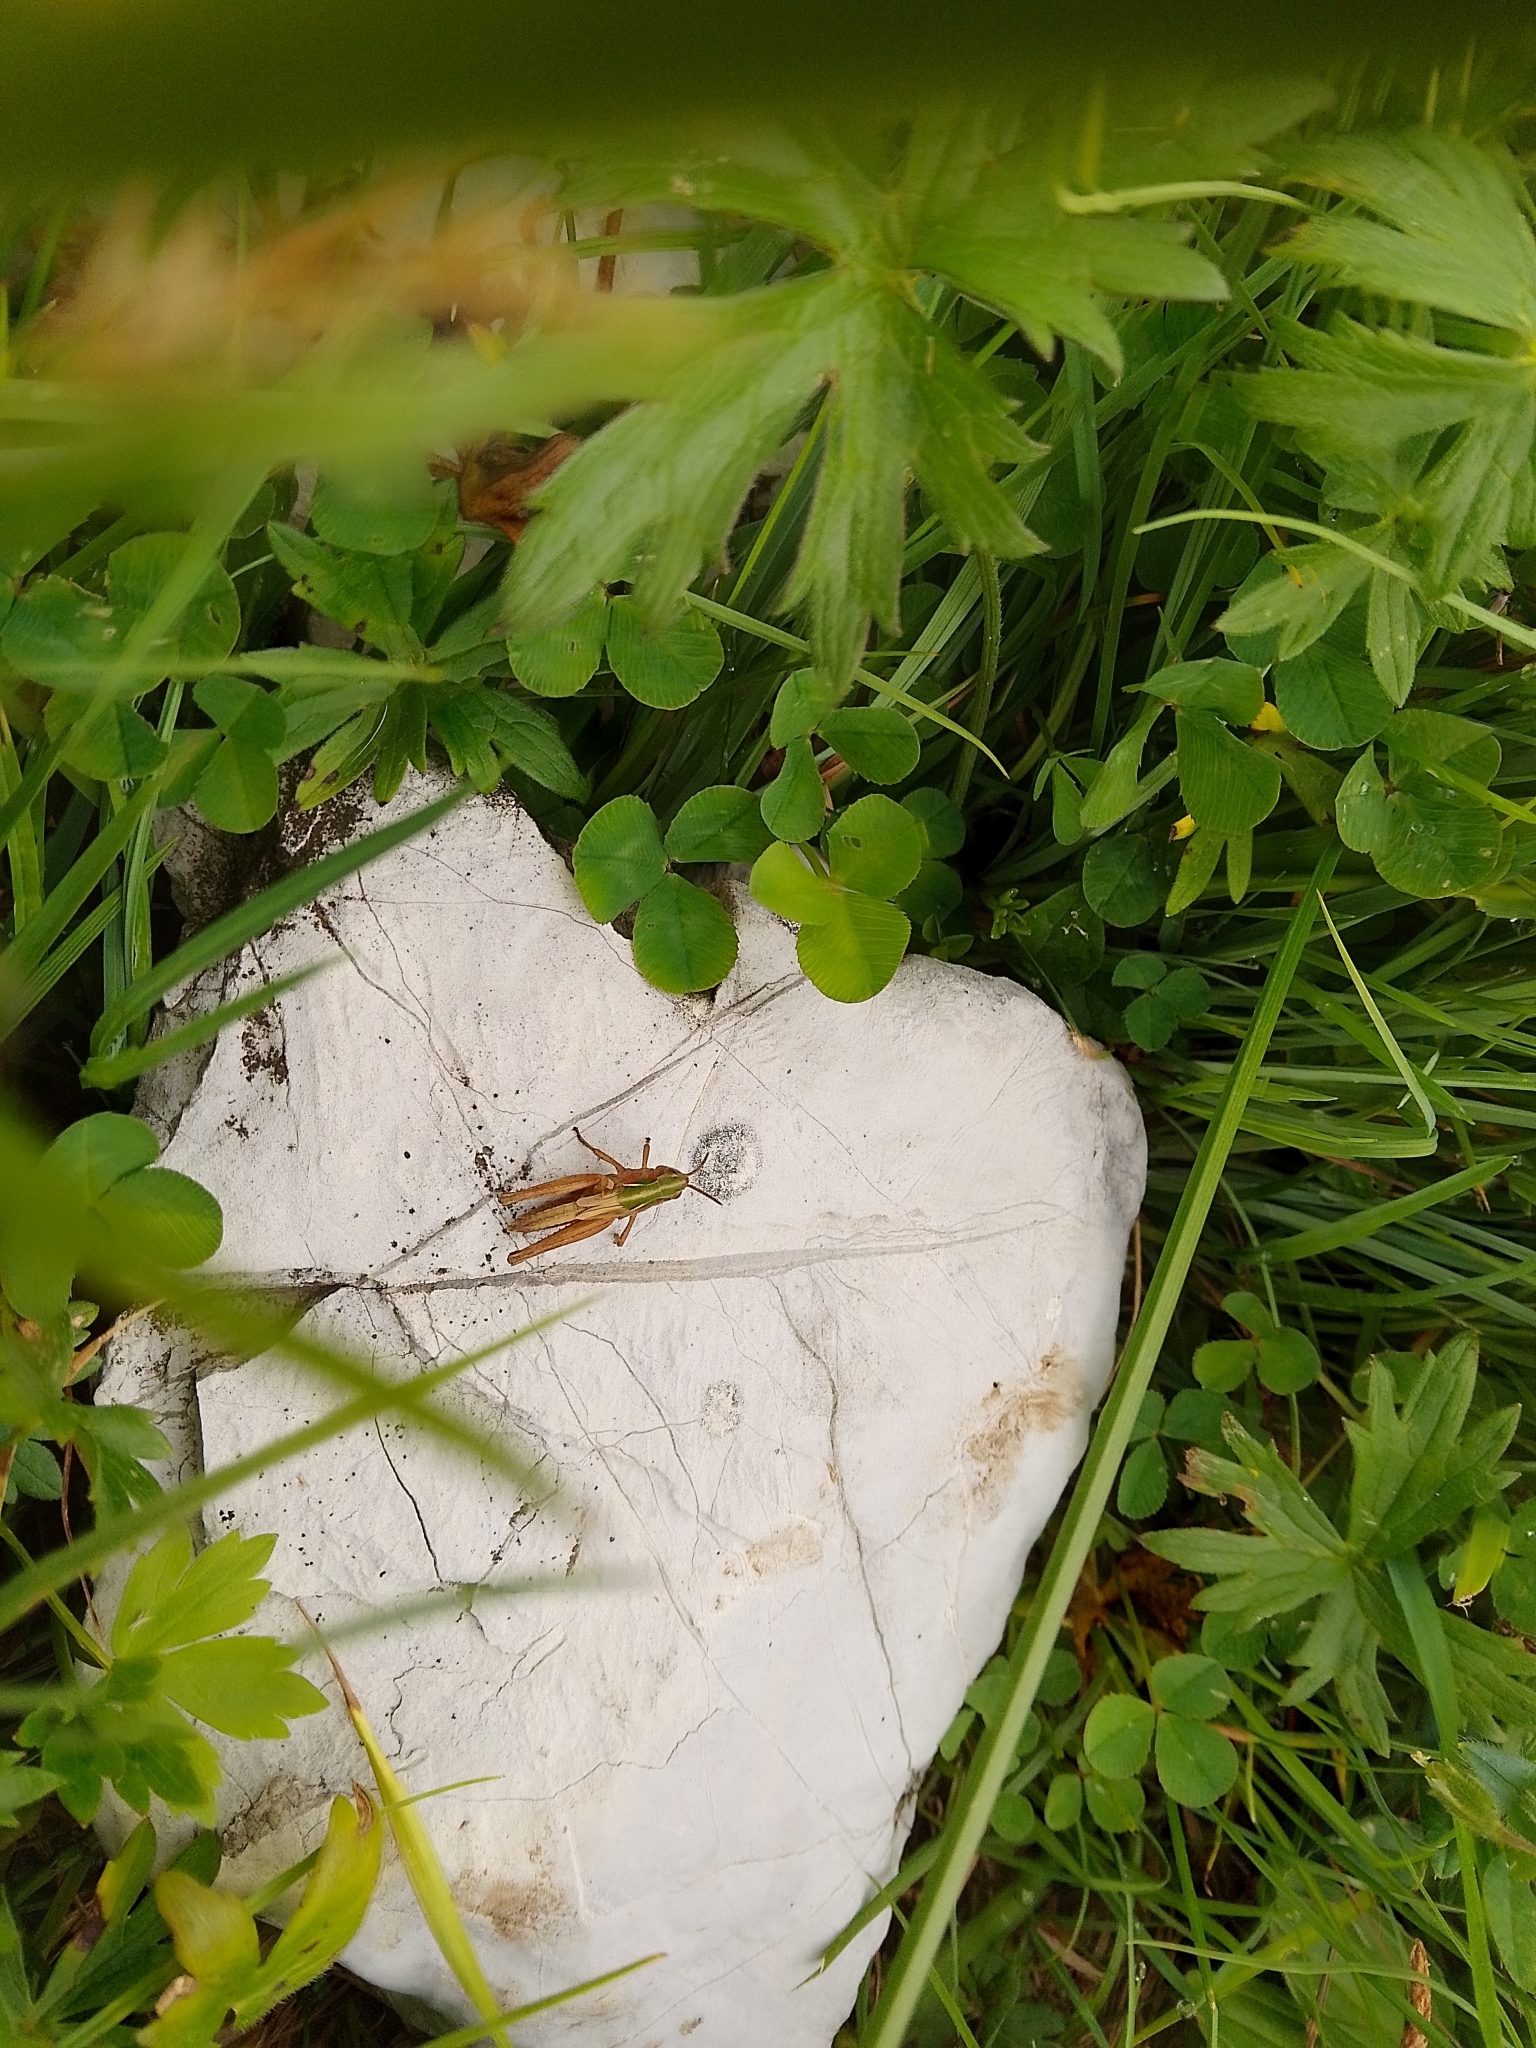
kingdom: Animalia
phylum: Arthropoda
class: Insecta
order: Orthoptera
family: Acrididae
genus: Omocestus
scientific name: Omocestus viridulus
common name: Common green grasshopper
